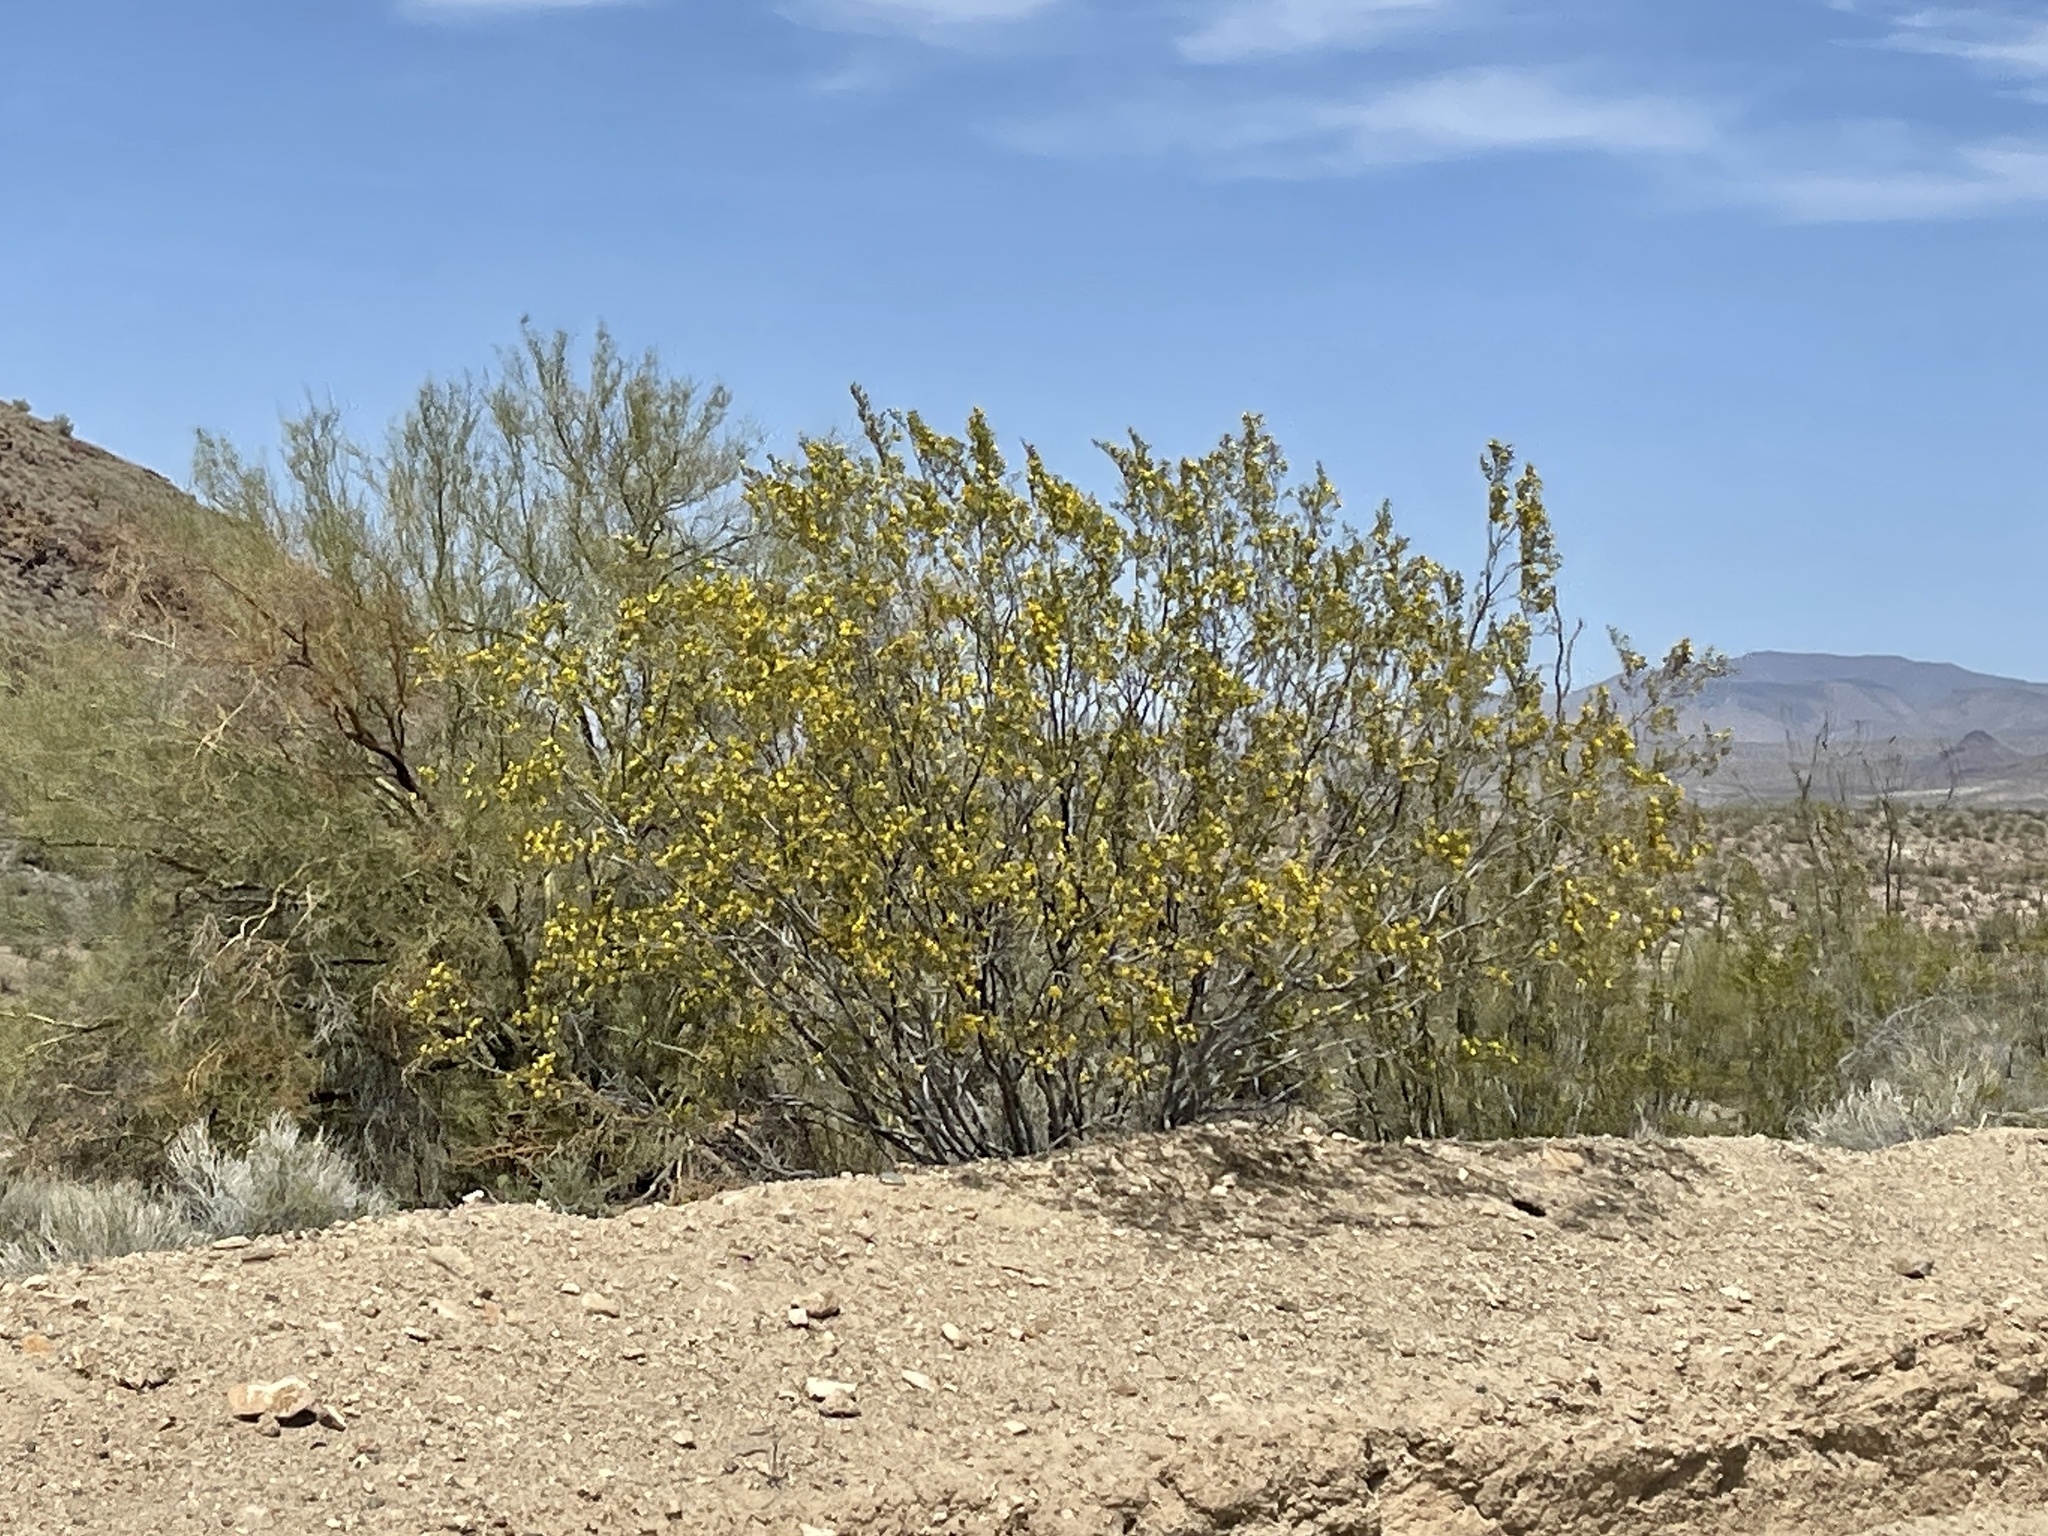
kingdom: Plantae
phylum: Tracheophyta
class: Magnoliopsida
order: Zygophyllales
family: Zygophyllaceae
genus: Larrea
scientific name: Larrea tridentata
